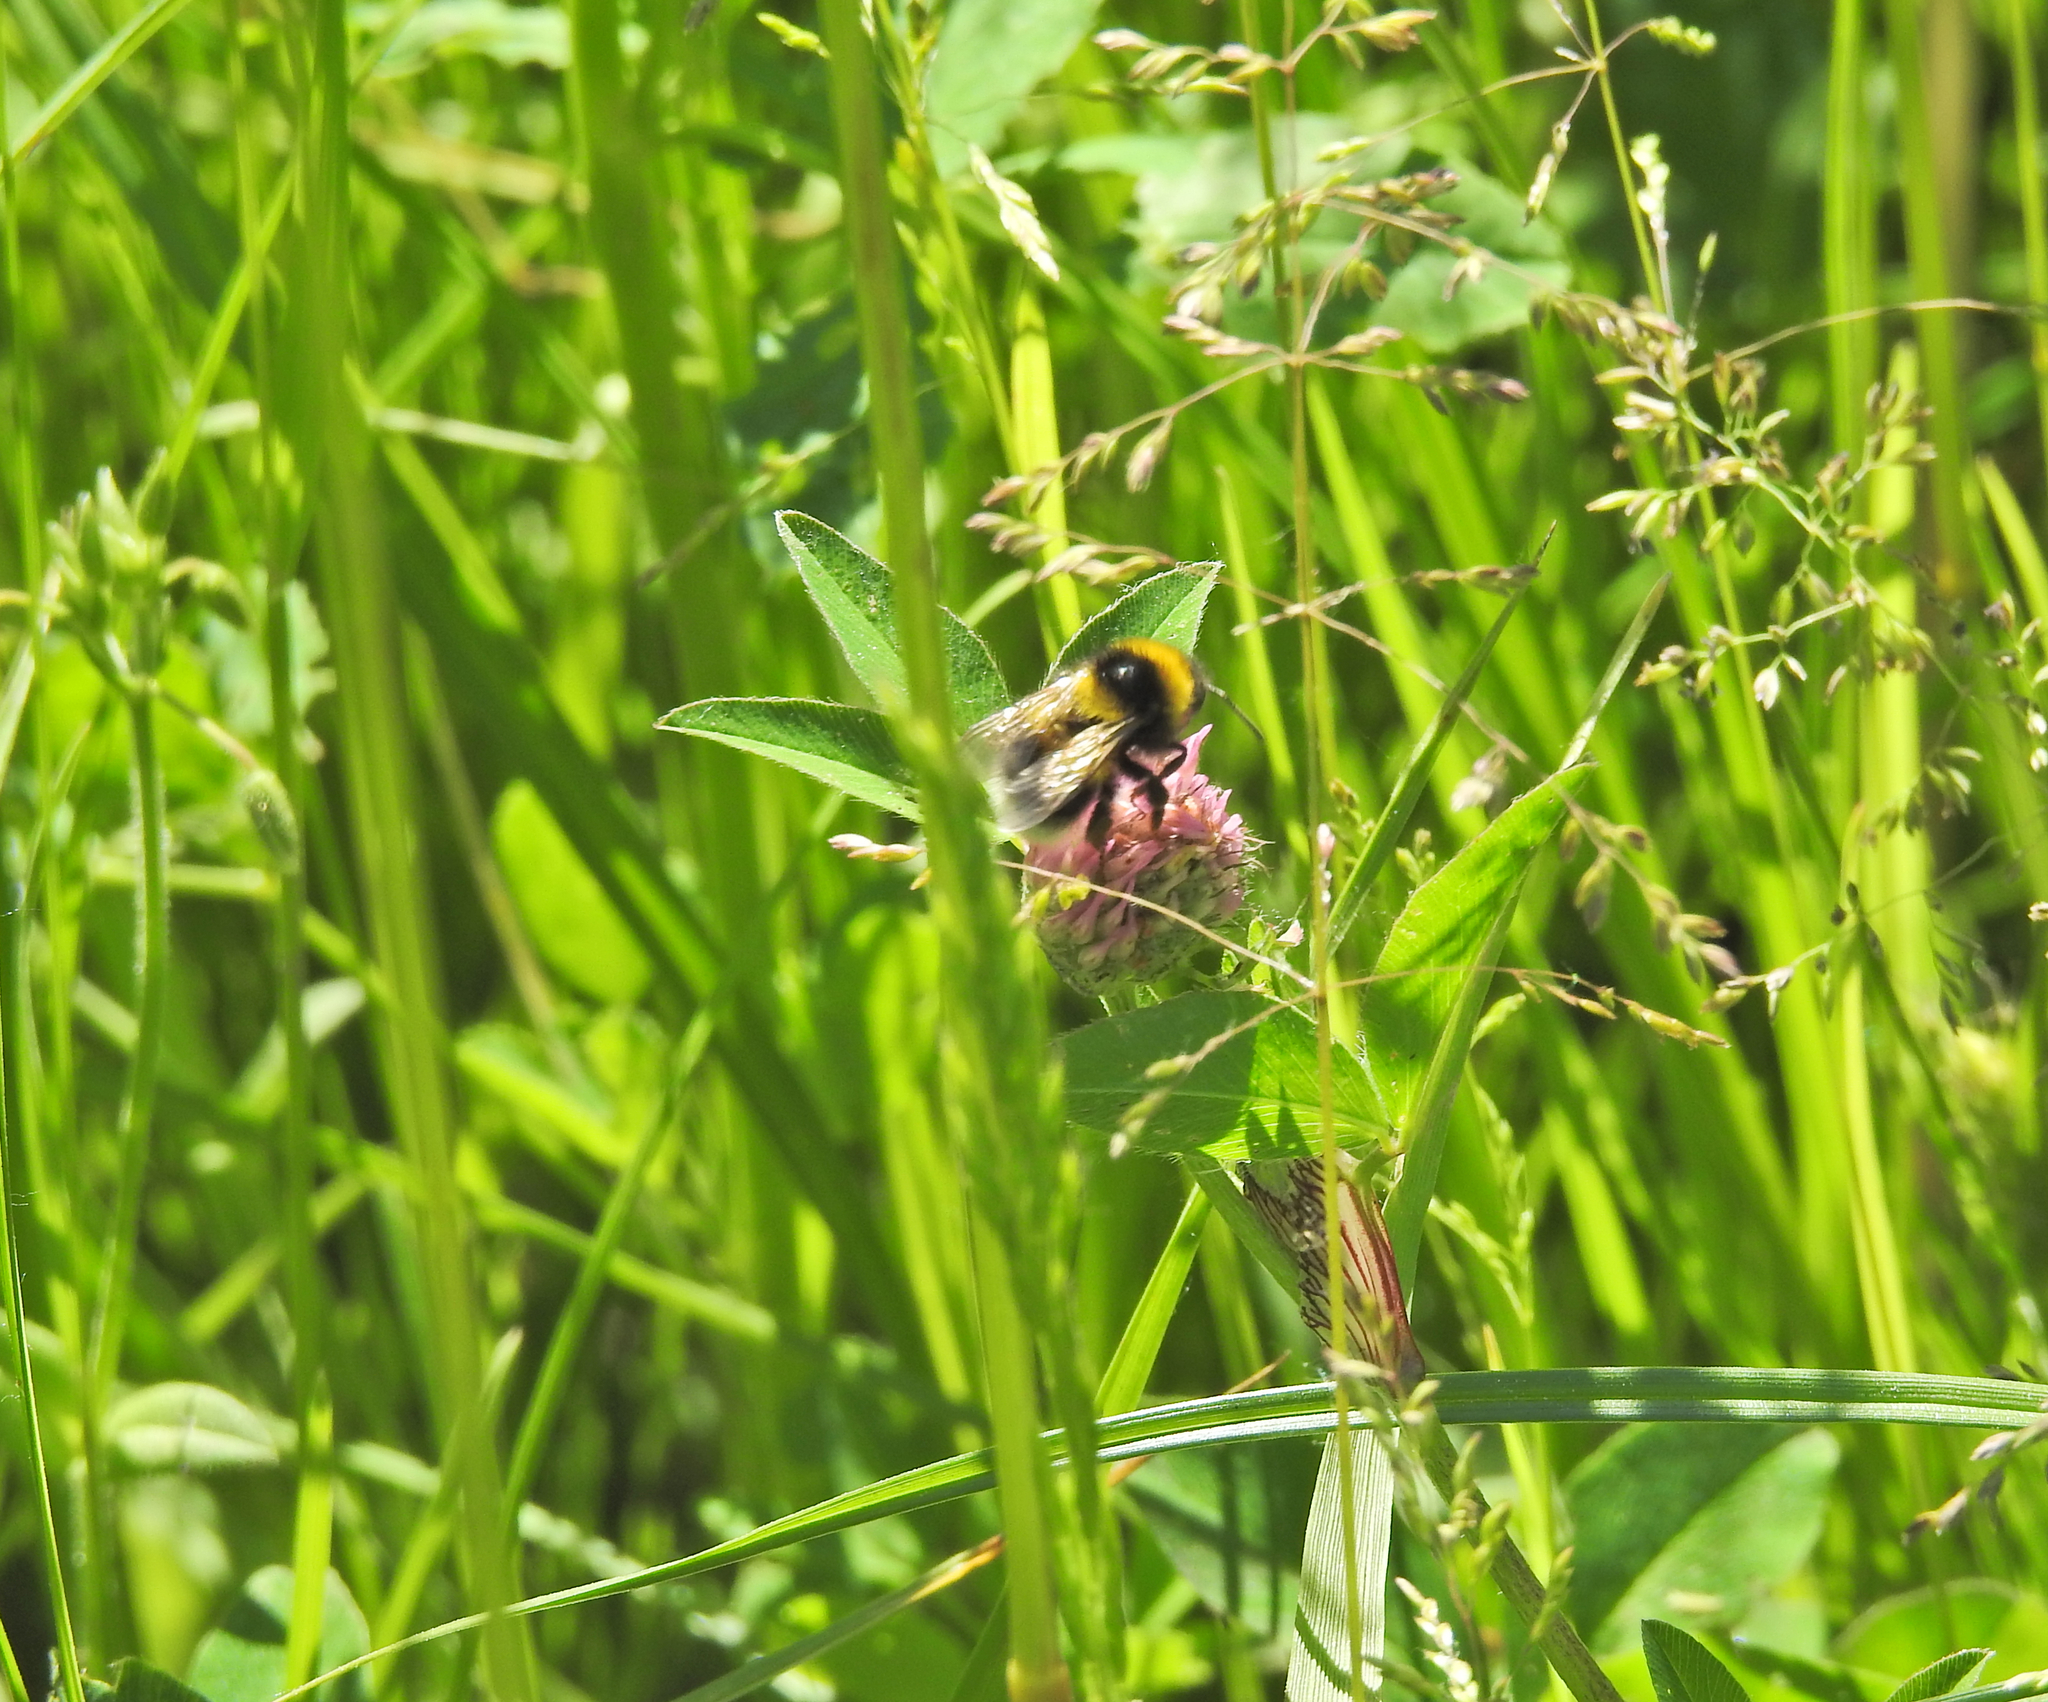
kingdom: Animalia
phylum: Arthropoda
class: Insecta
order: Hymenoptera
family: Apidae
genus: Bombus
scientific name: Bombus hortorum
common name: Garden bumblebee
